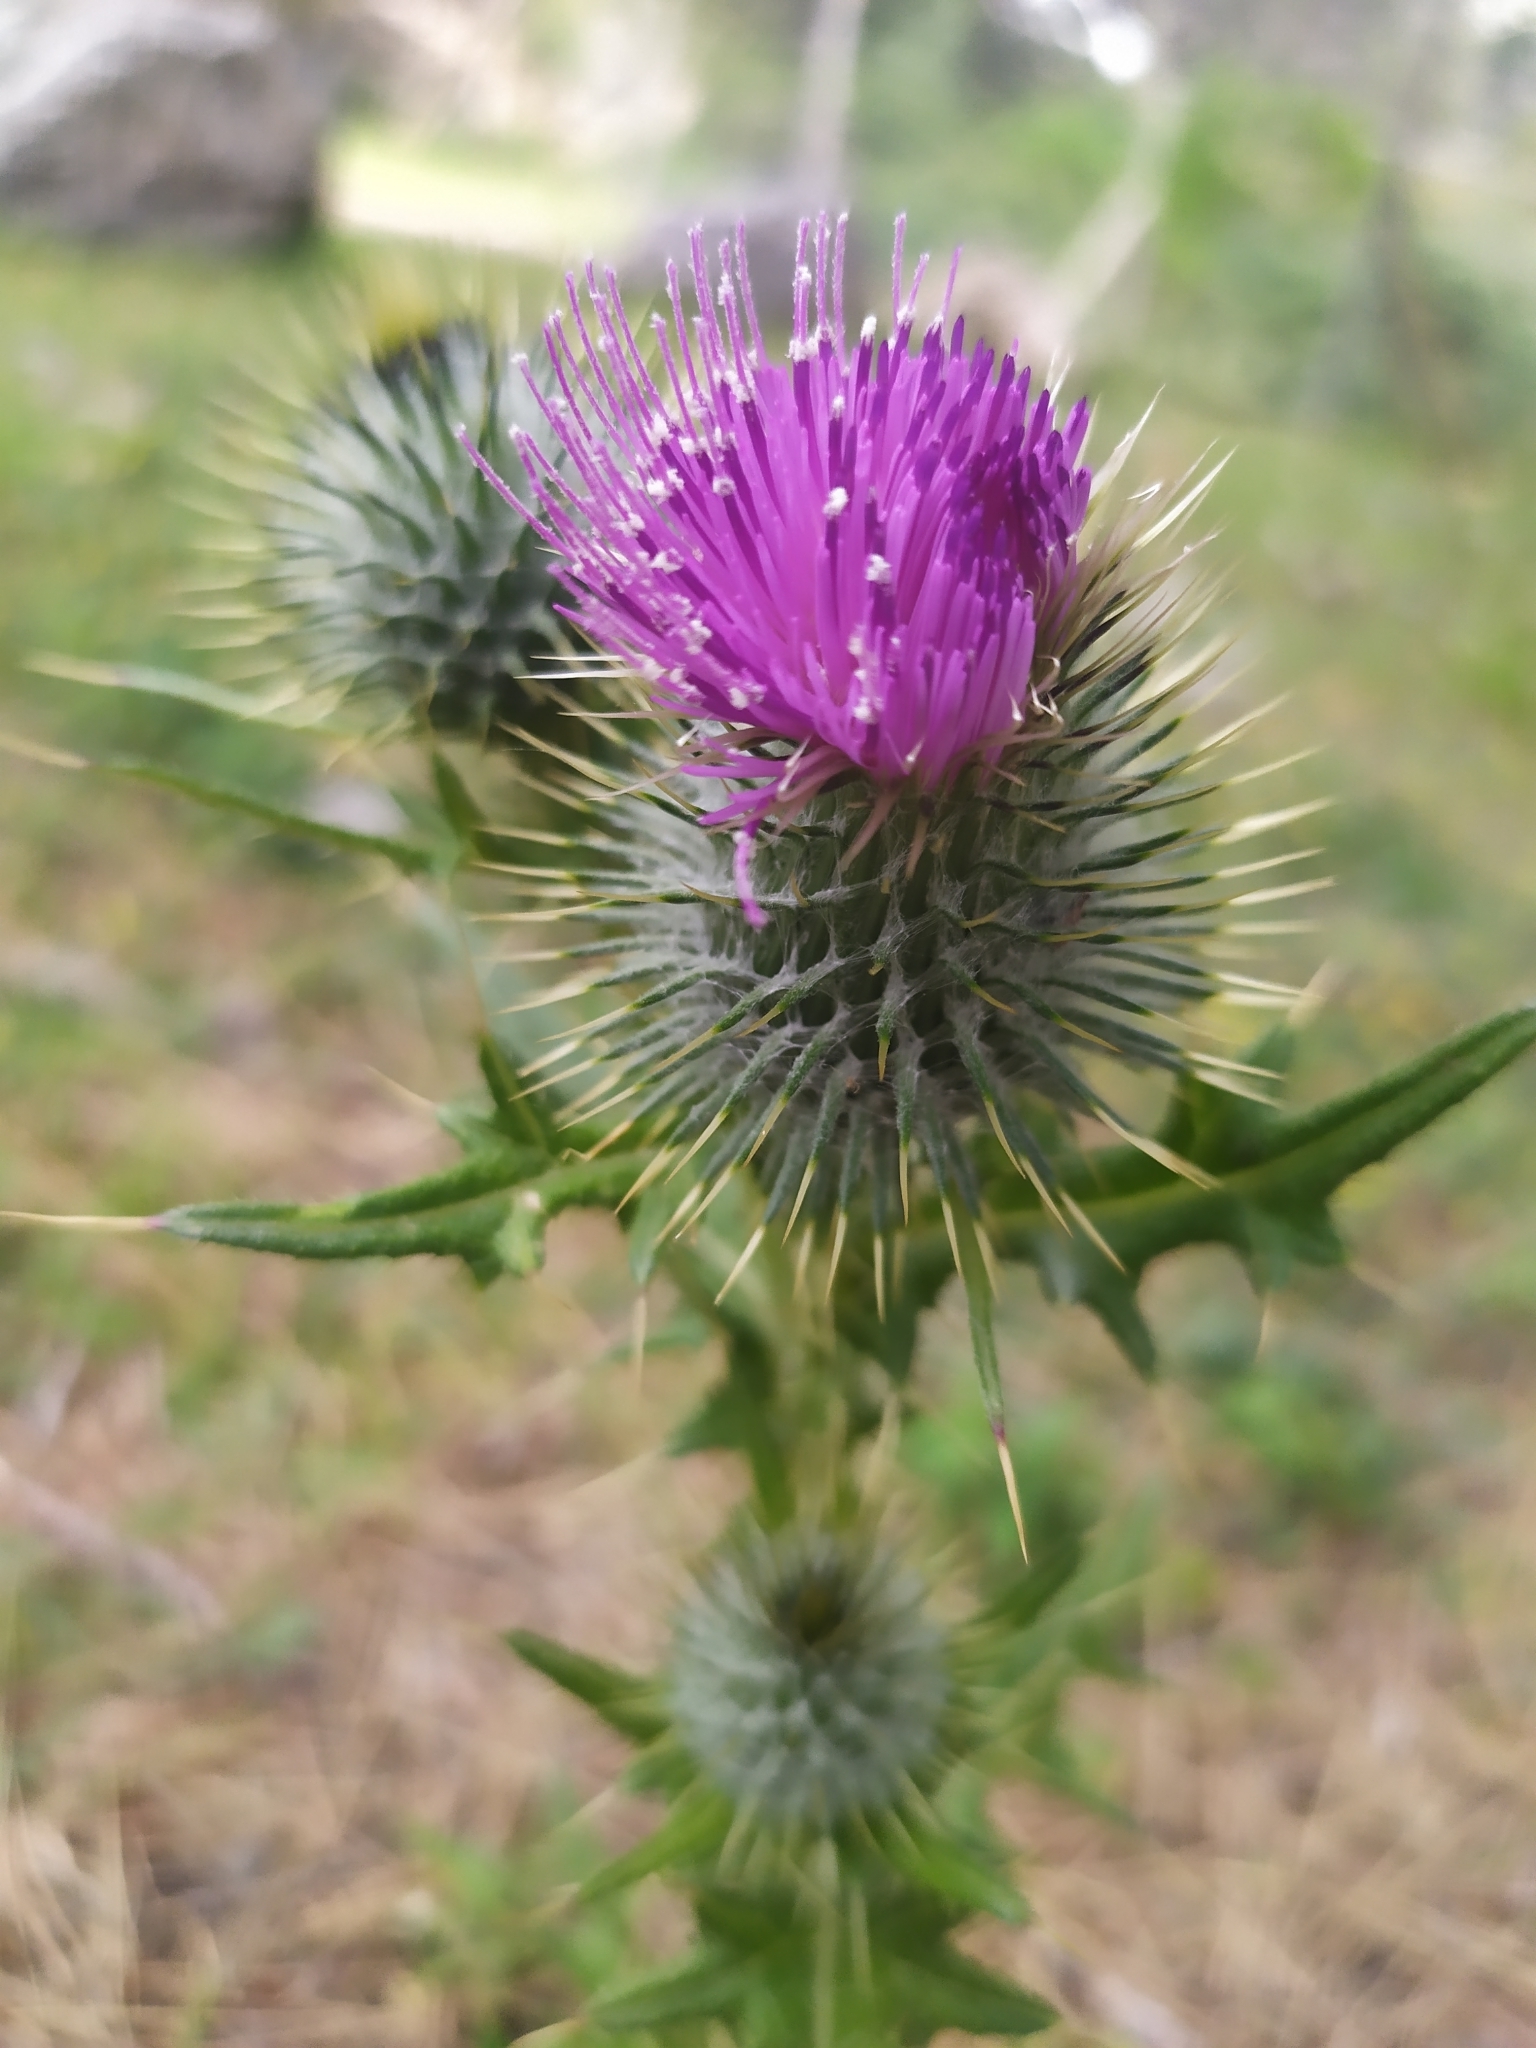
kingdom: Plantae
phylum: Tracheophyta
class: Magnoliopsida
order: Asterales
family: Asteraceae
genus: Cirsium
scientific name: Cirsium vulgare
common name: Bull thistle
